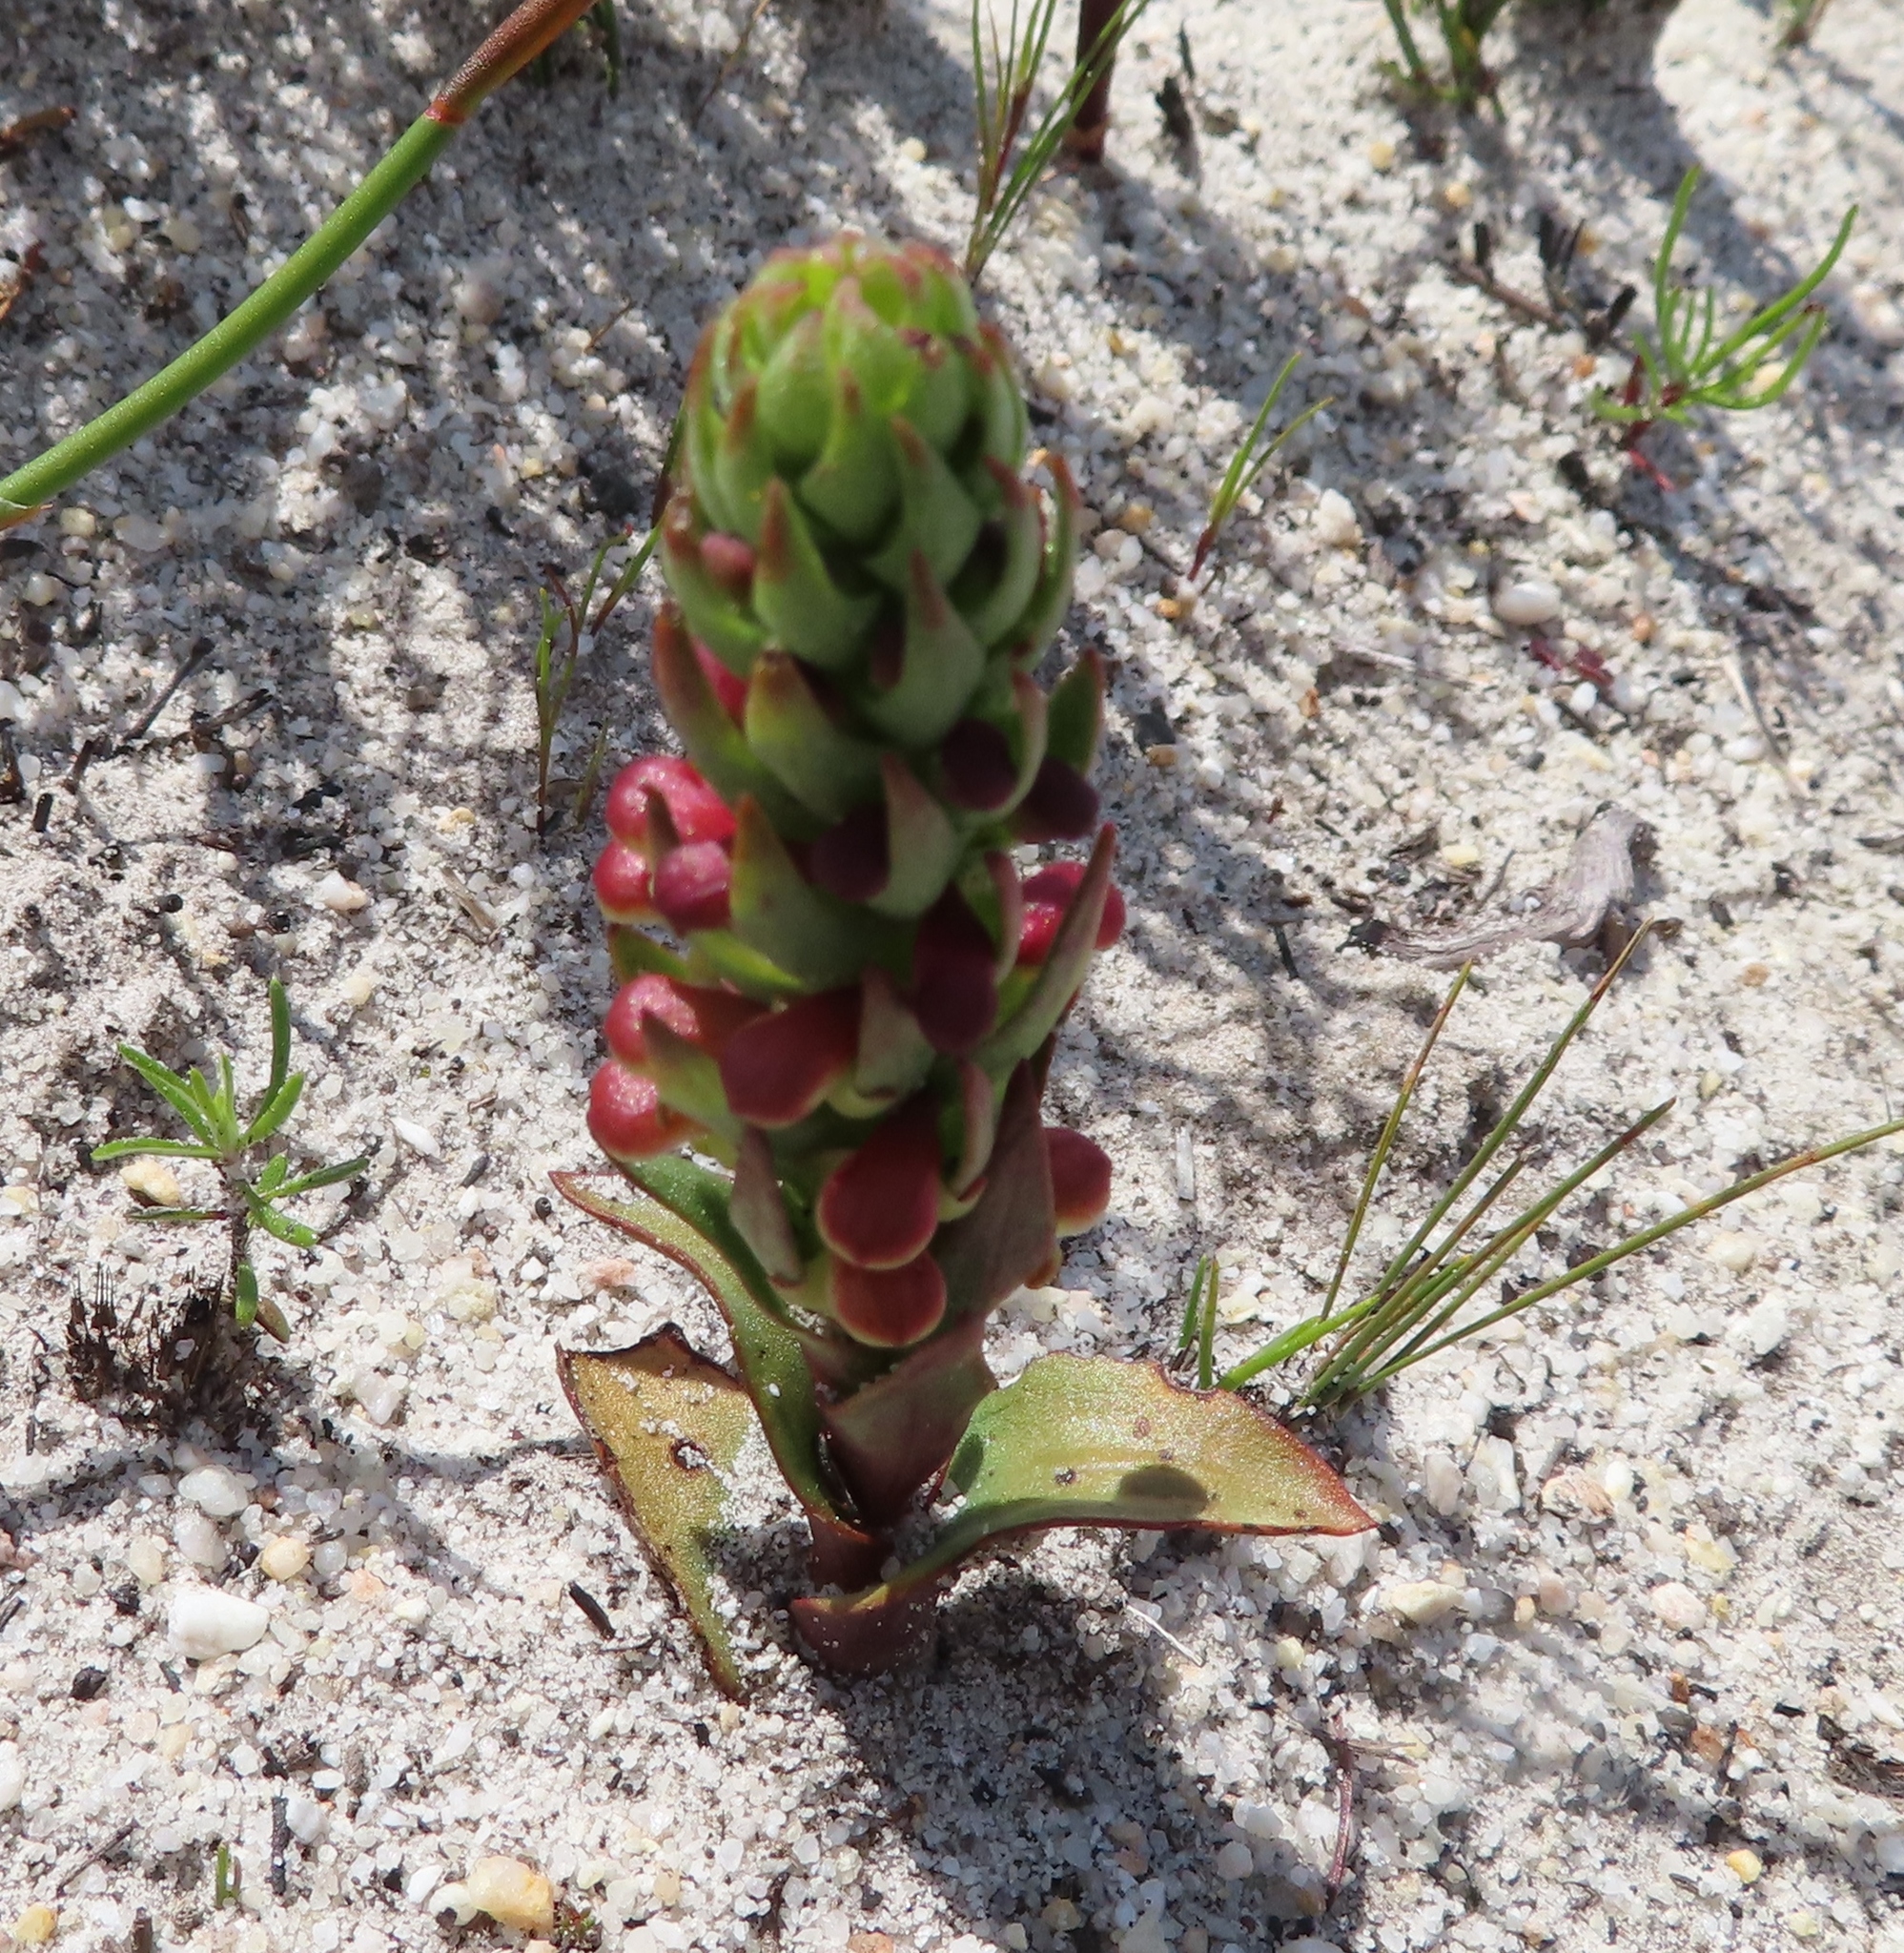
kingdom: Plantae
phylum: Tracheophyta
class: Liliopsida
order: Asparagales
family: Orchidaceae
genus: Disa
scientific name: Disa pygmaea
